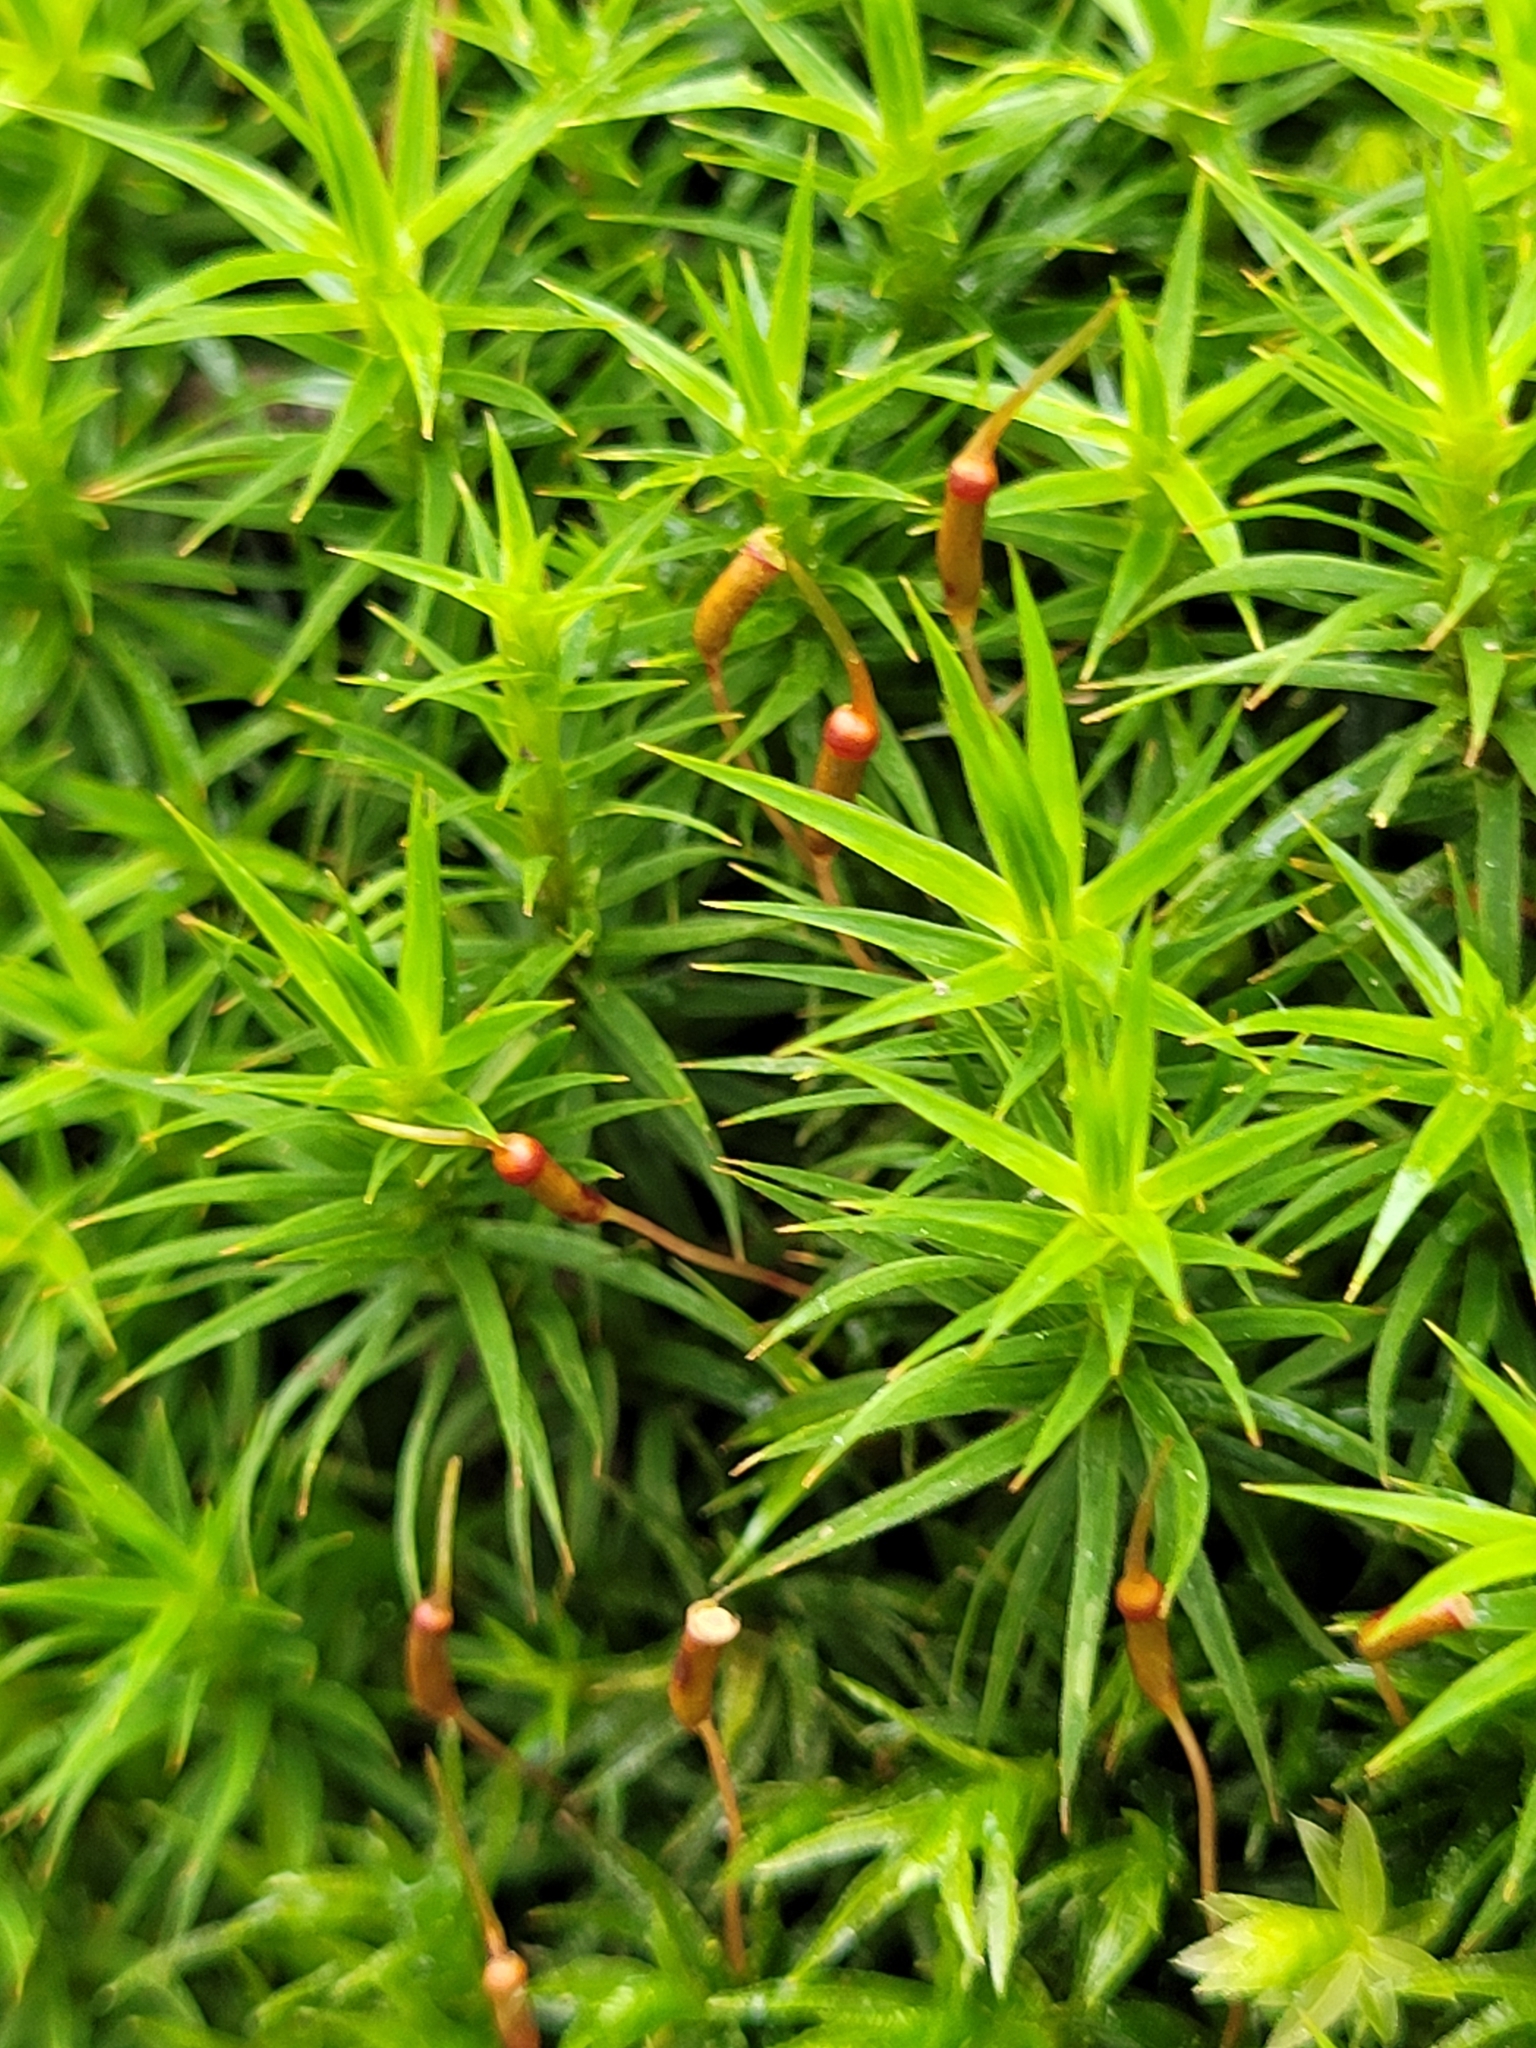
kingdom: Plantae
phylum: Bryophyta
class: Polytrichopsida
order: Polytrichales
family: Polytrichaceae
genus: Polytrichum
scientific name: Polytrichum formosum
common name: Bank haircap moss
